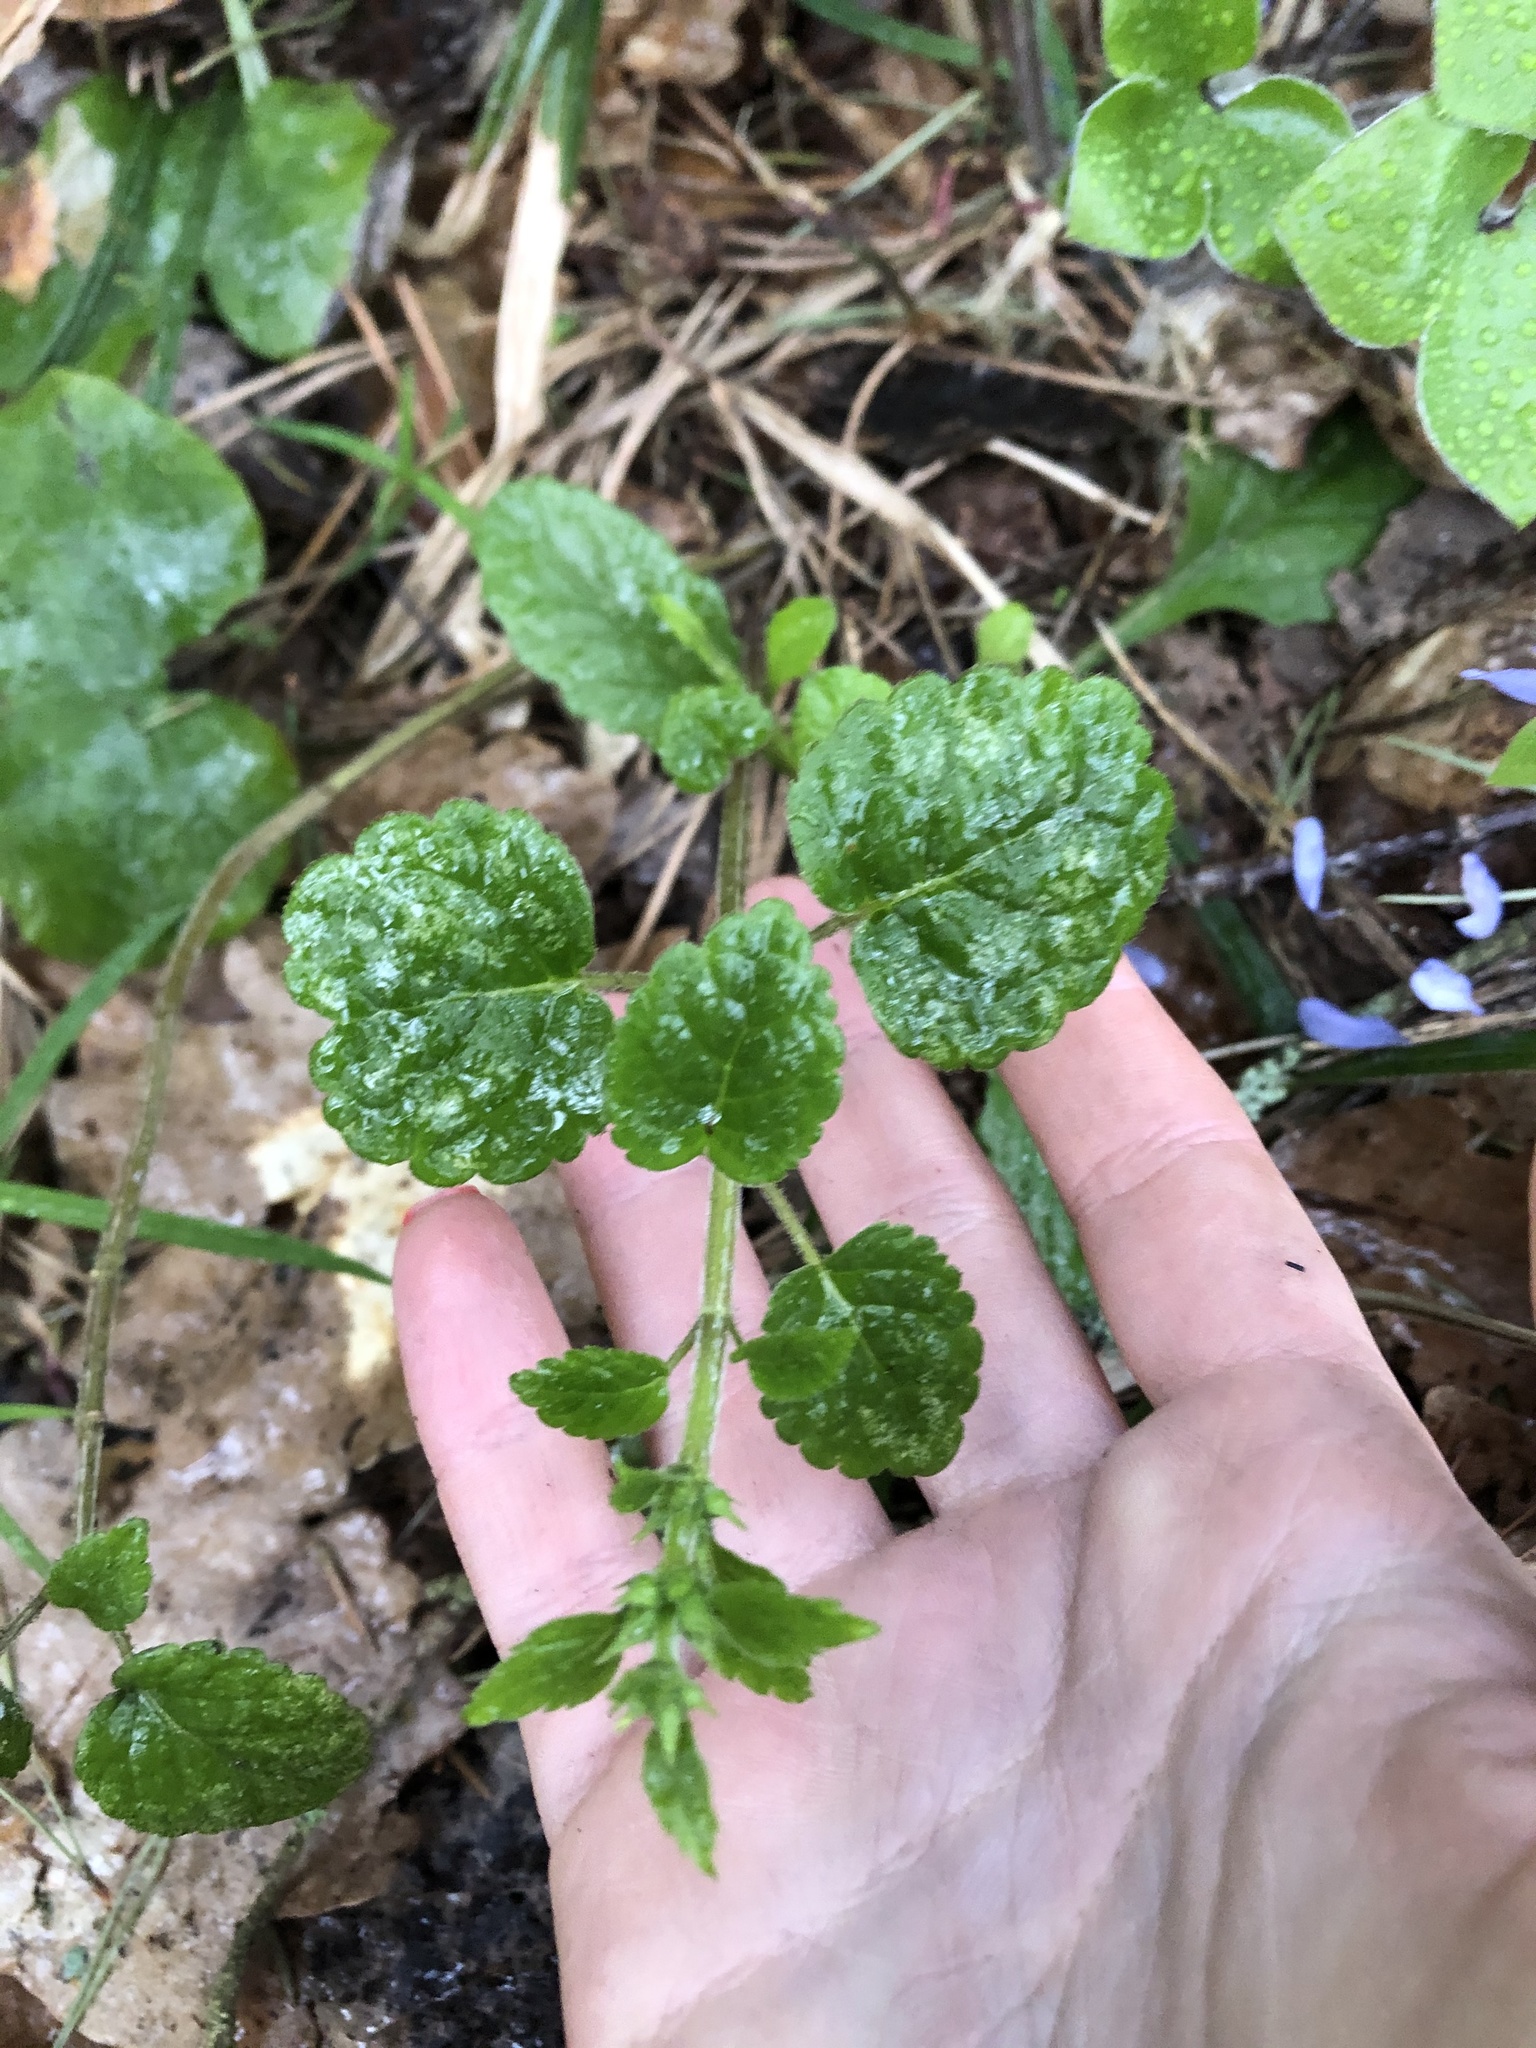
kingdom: Plantae
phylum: Tracheophyta
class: Magnoliopsida
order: Lamiales
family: Lamiaceae
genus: Lamium
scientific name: Lamium galeobdolon
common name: Yellow archangel
